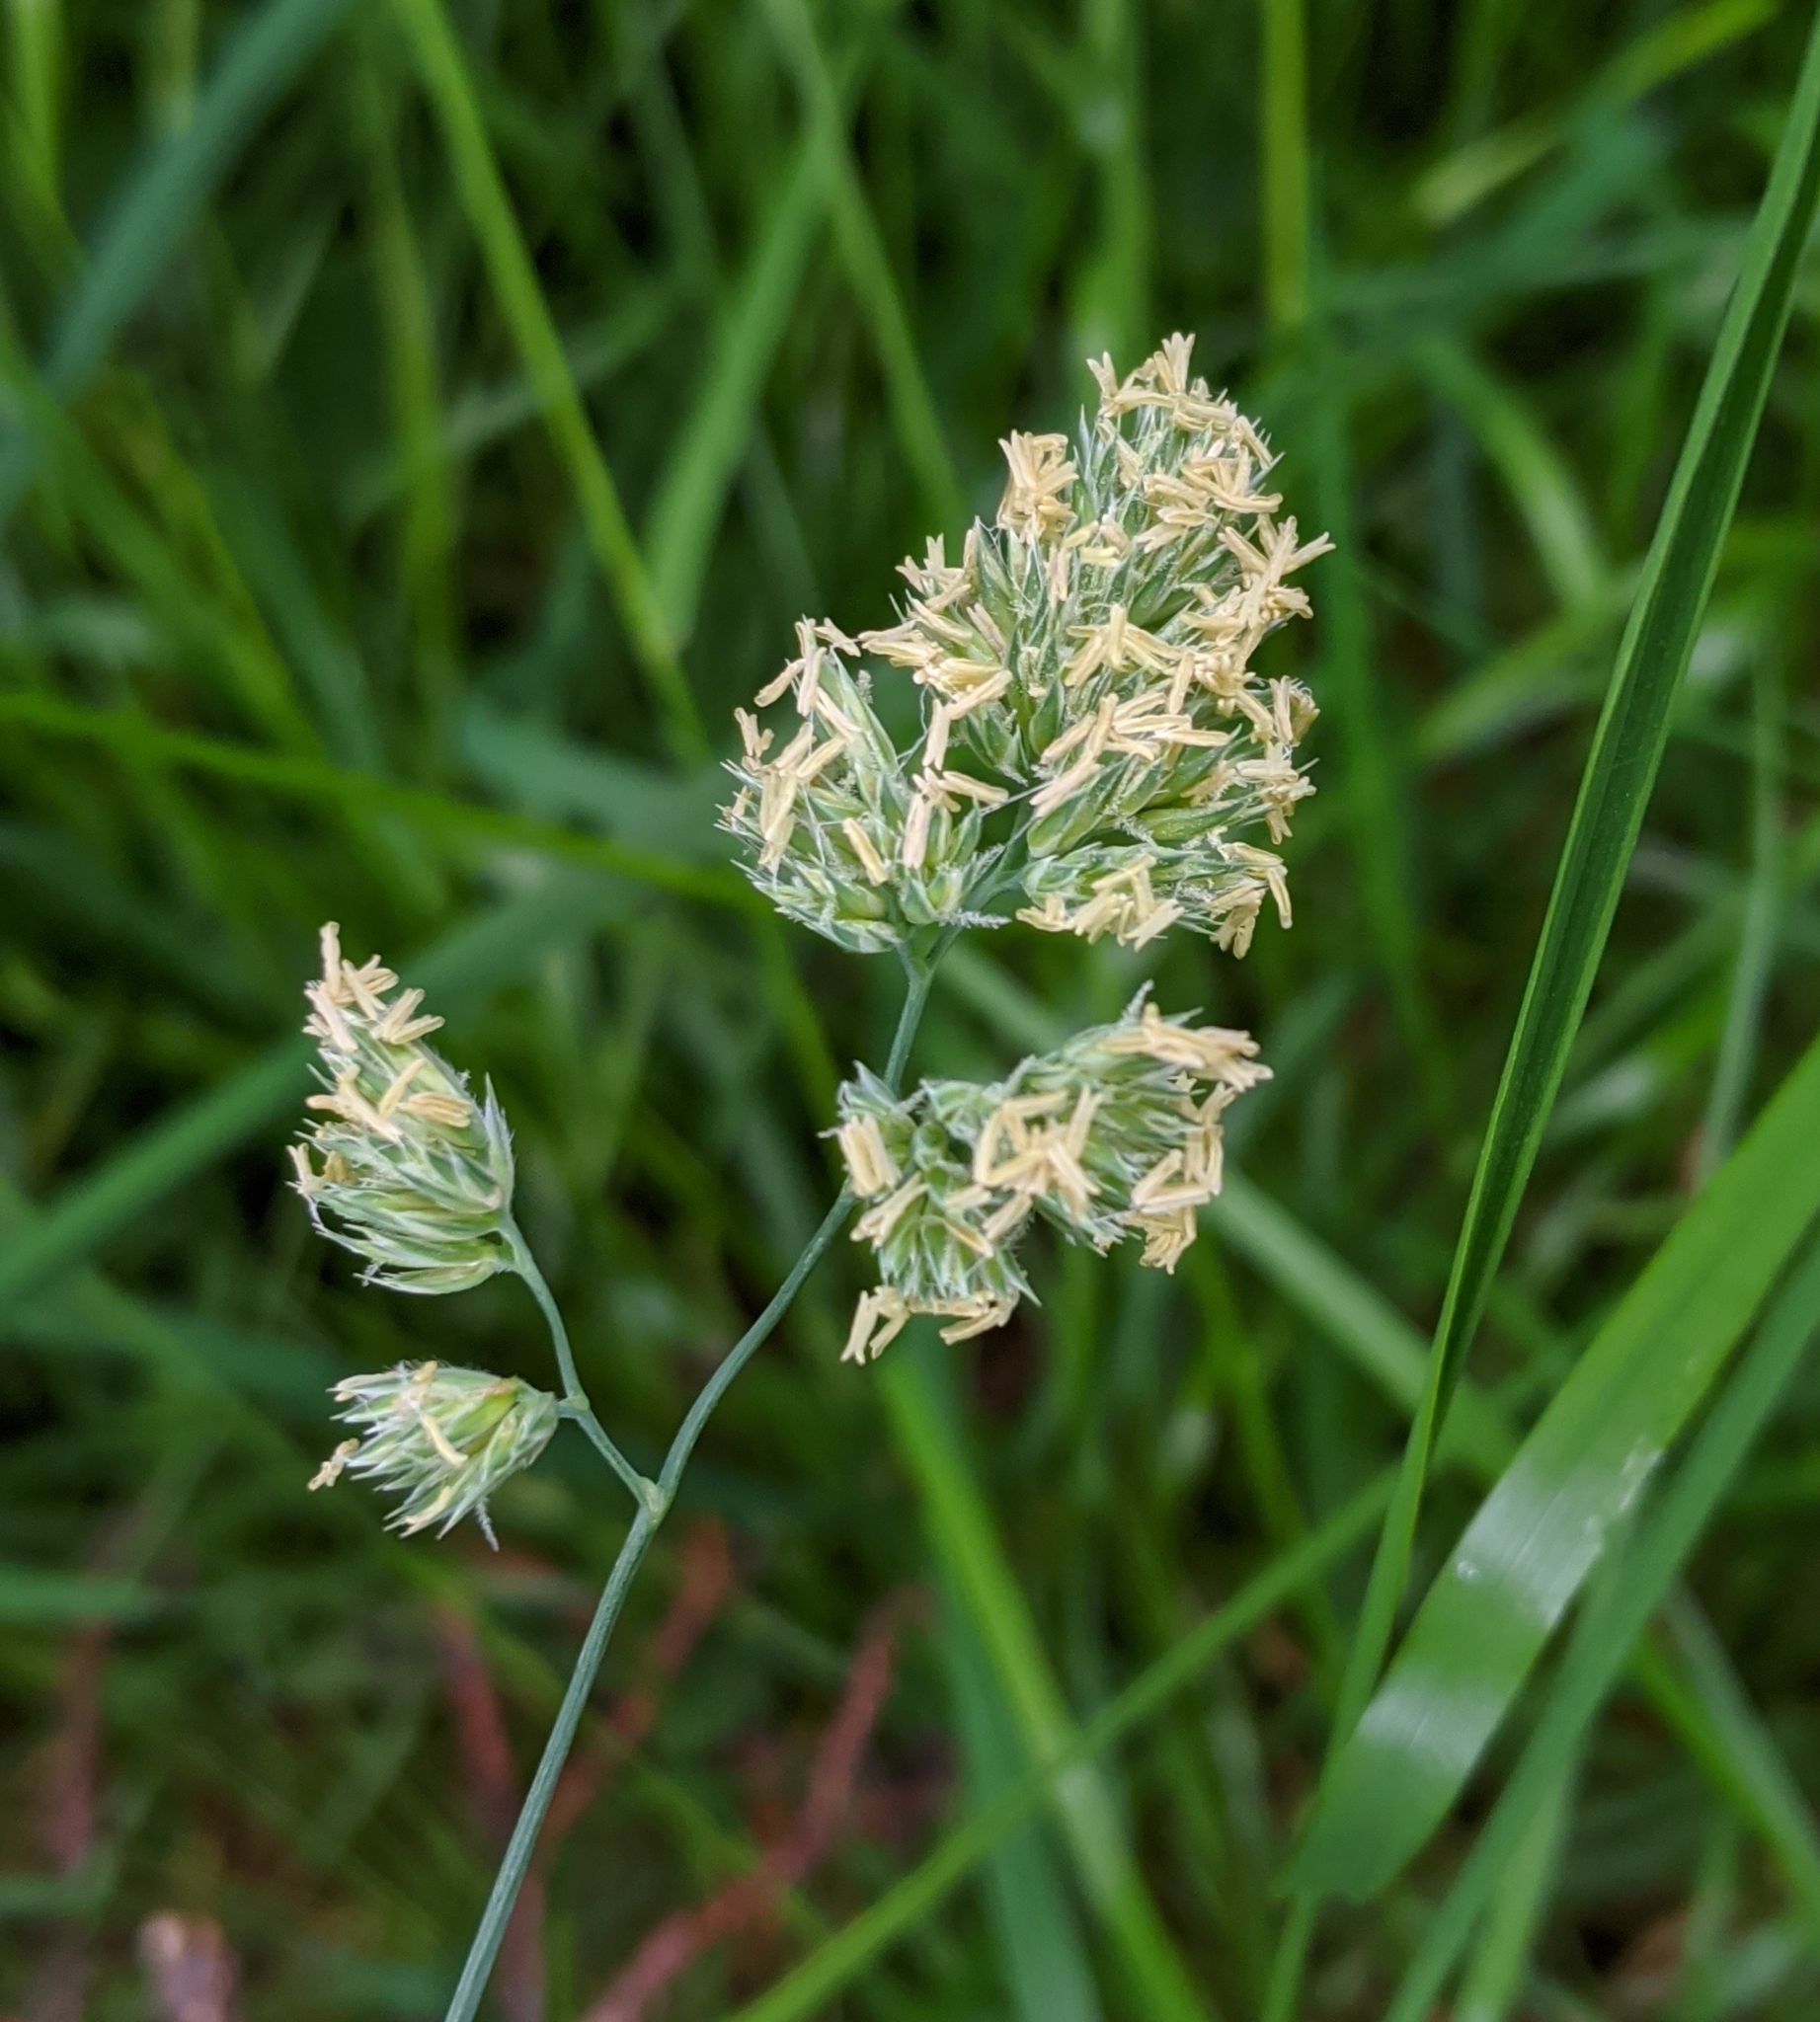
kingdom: Plantae
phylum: Tracheophyta
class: Liliopsida
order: Poales
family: Poaceae
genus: Dactylis
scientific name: Dactylis glomerata
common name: Orchardgrass
